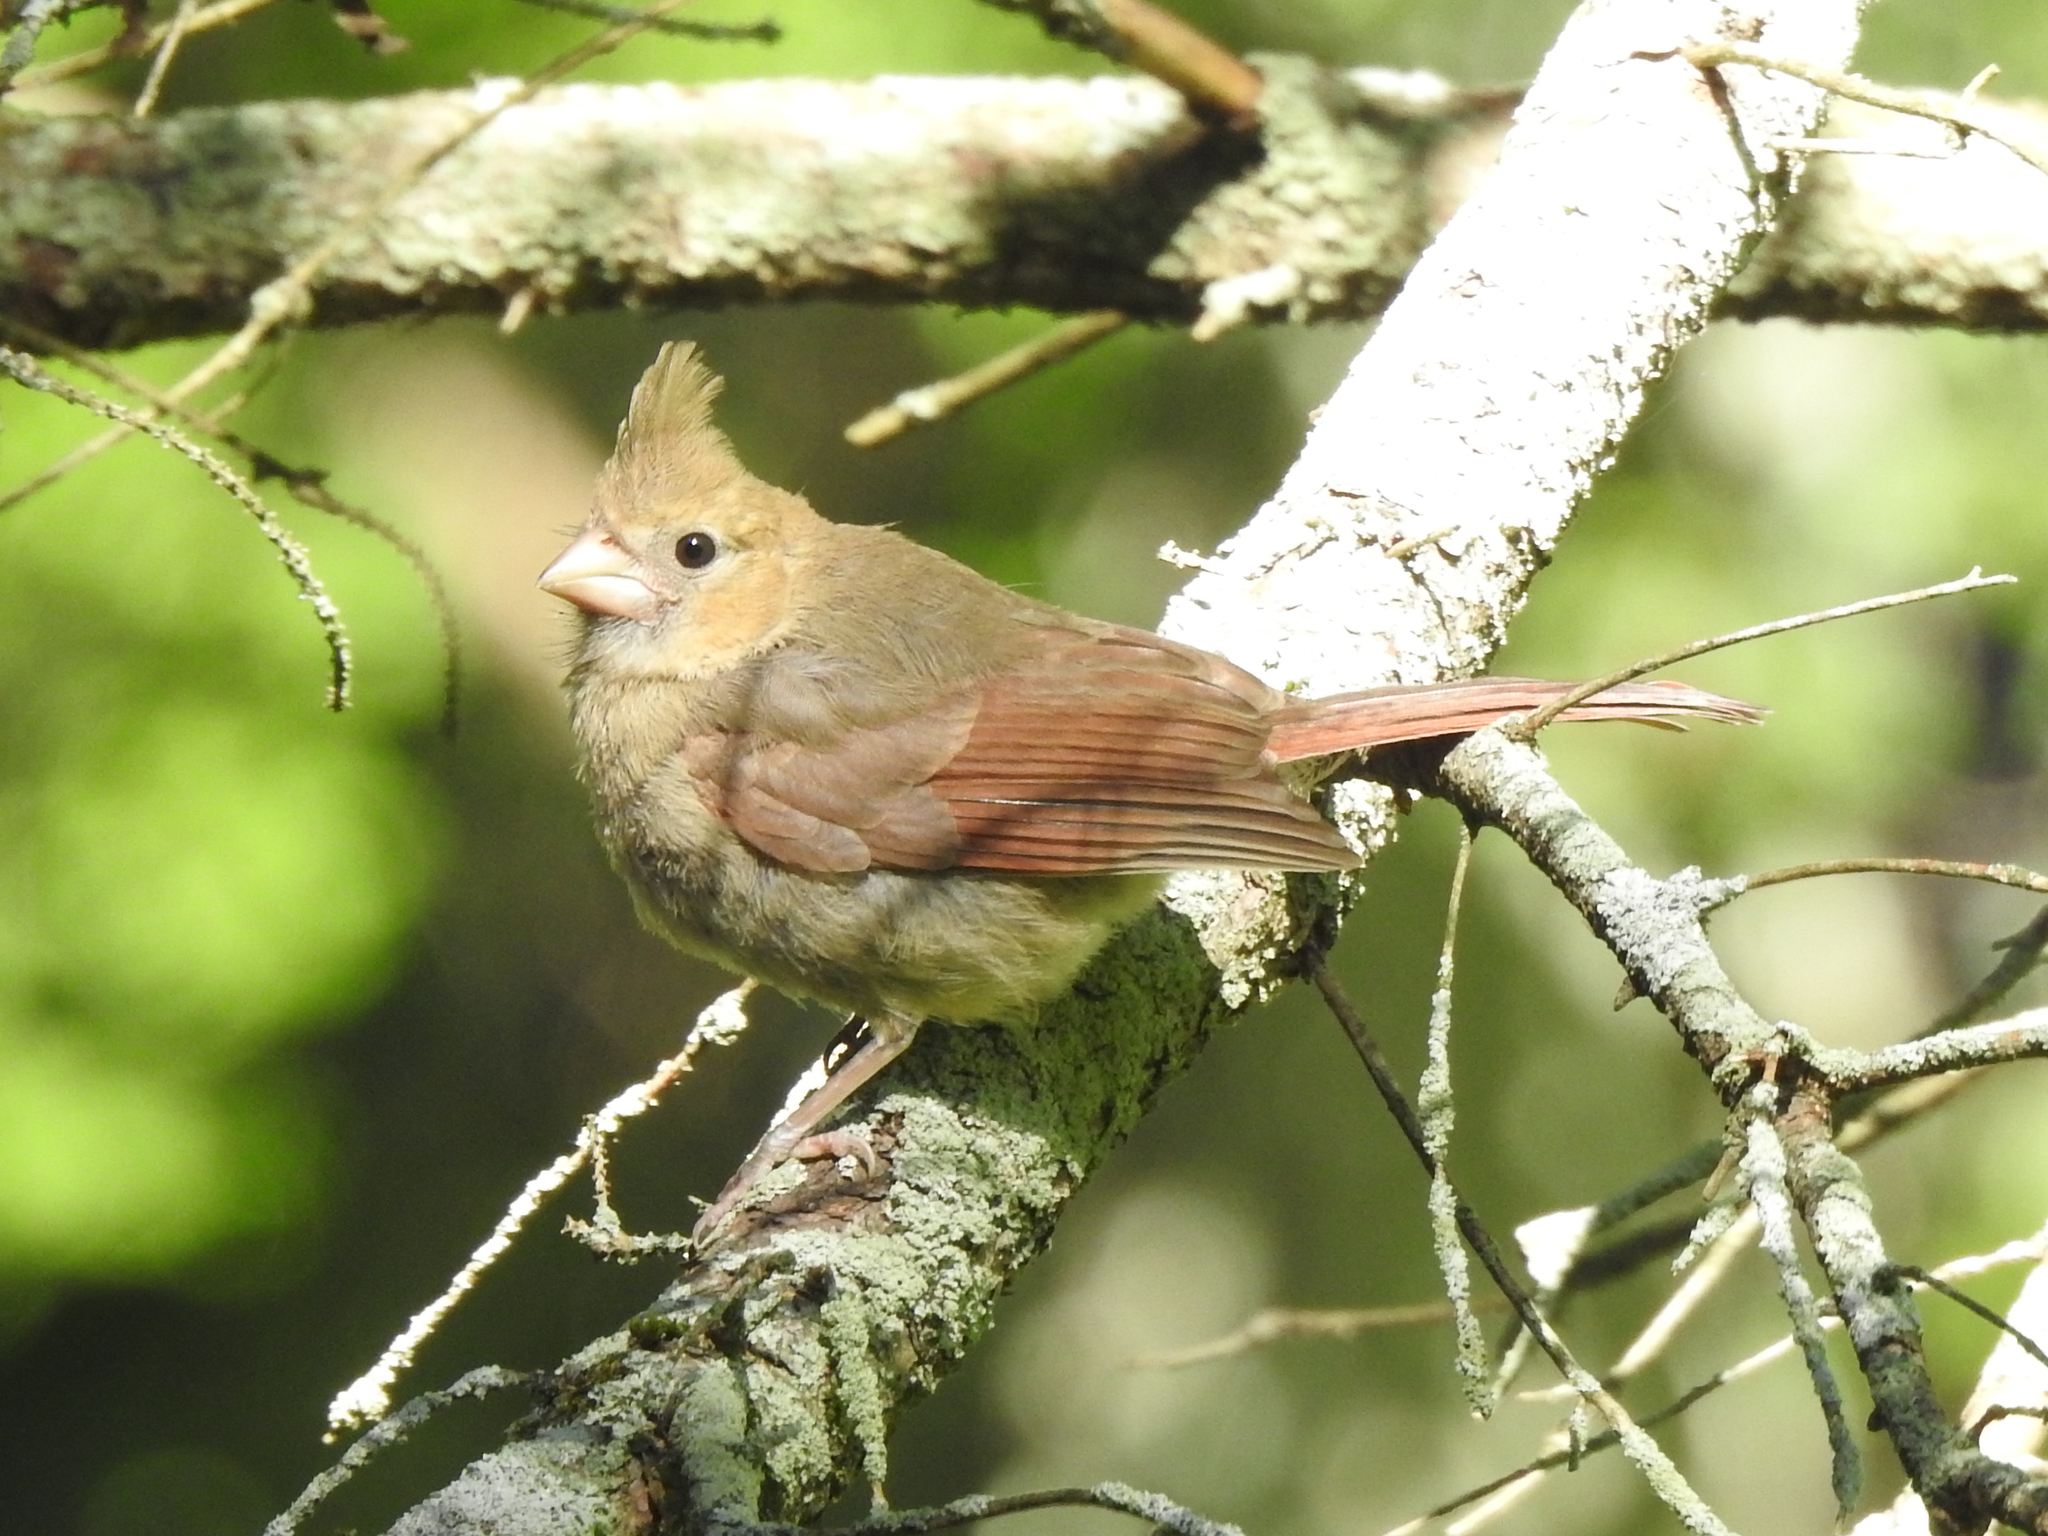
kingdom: Animalia
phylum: Chordata
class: Aves
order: Passeriformes
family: Cardinalidae
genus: Cardinalis
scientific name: Cardinalis cardinalis
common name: Northern cardinal
